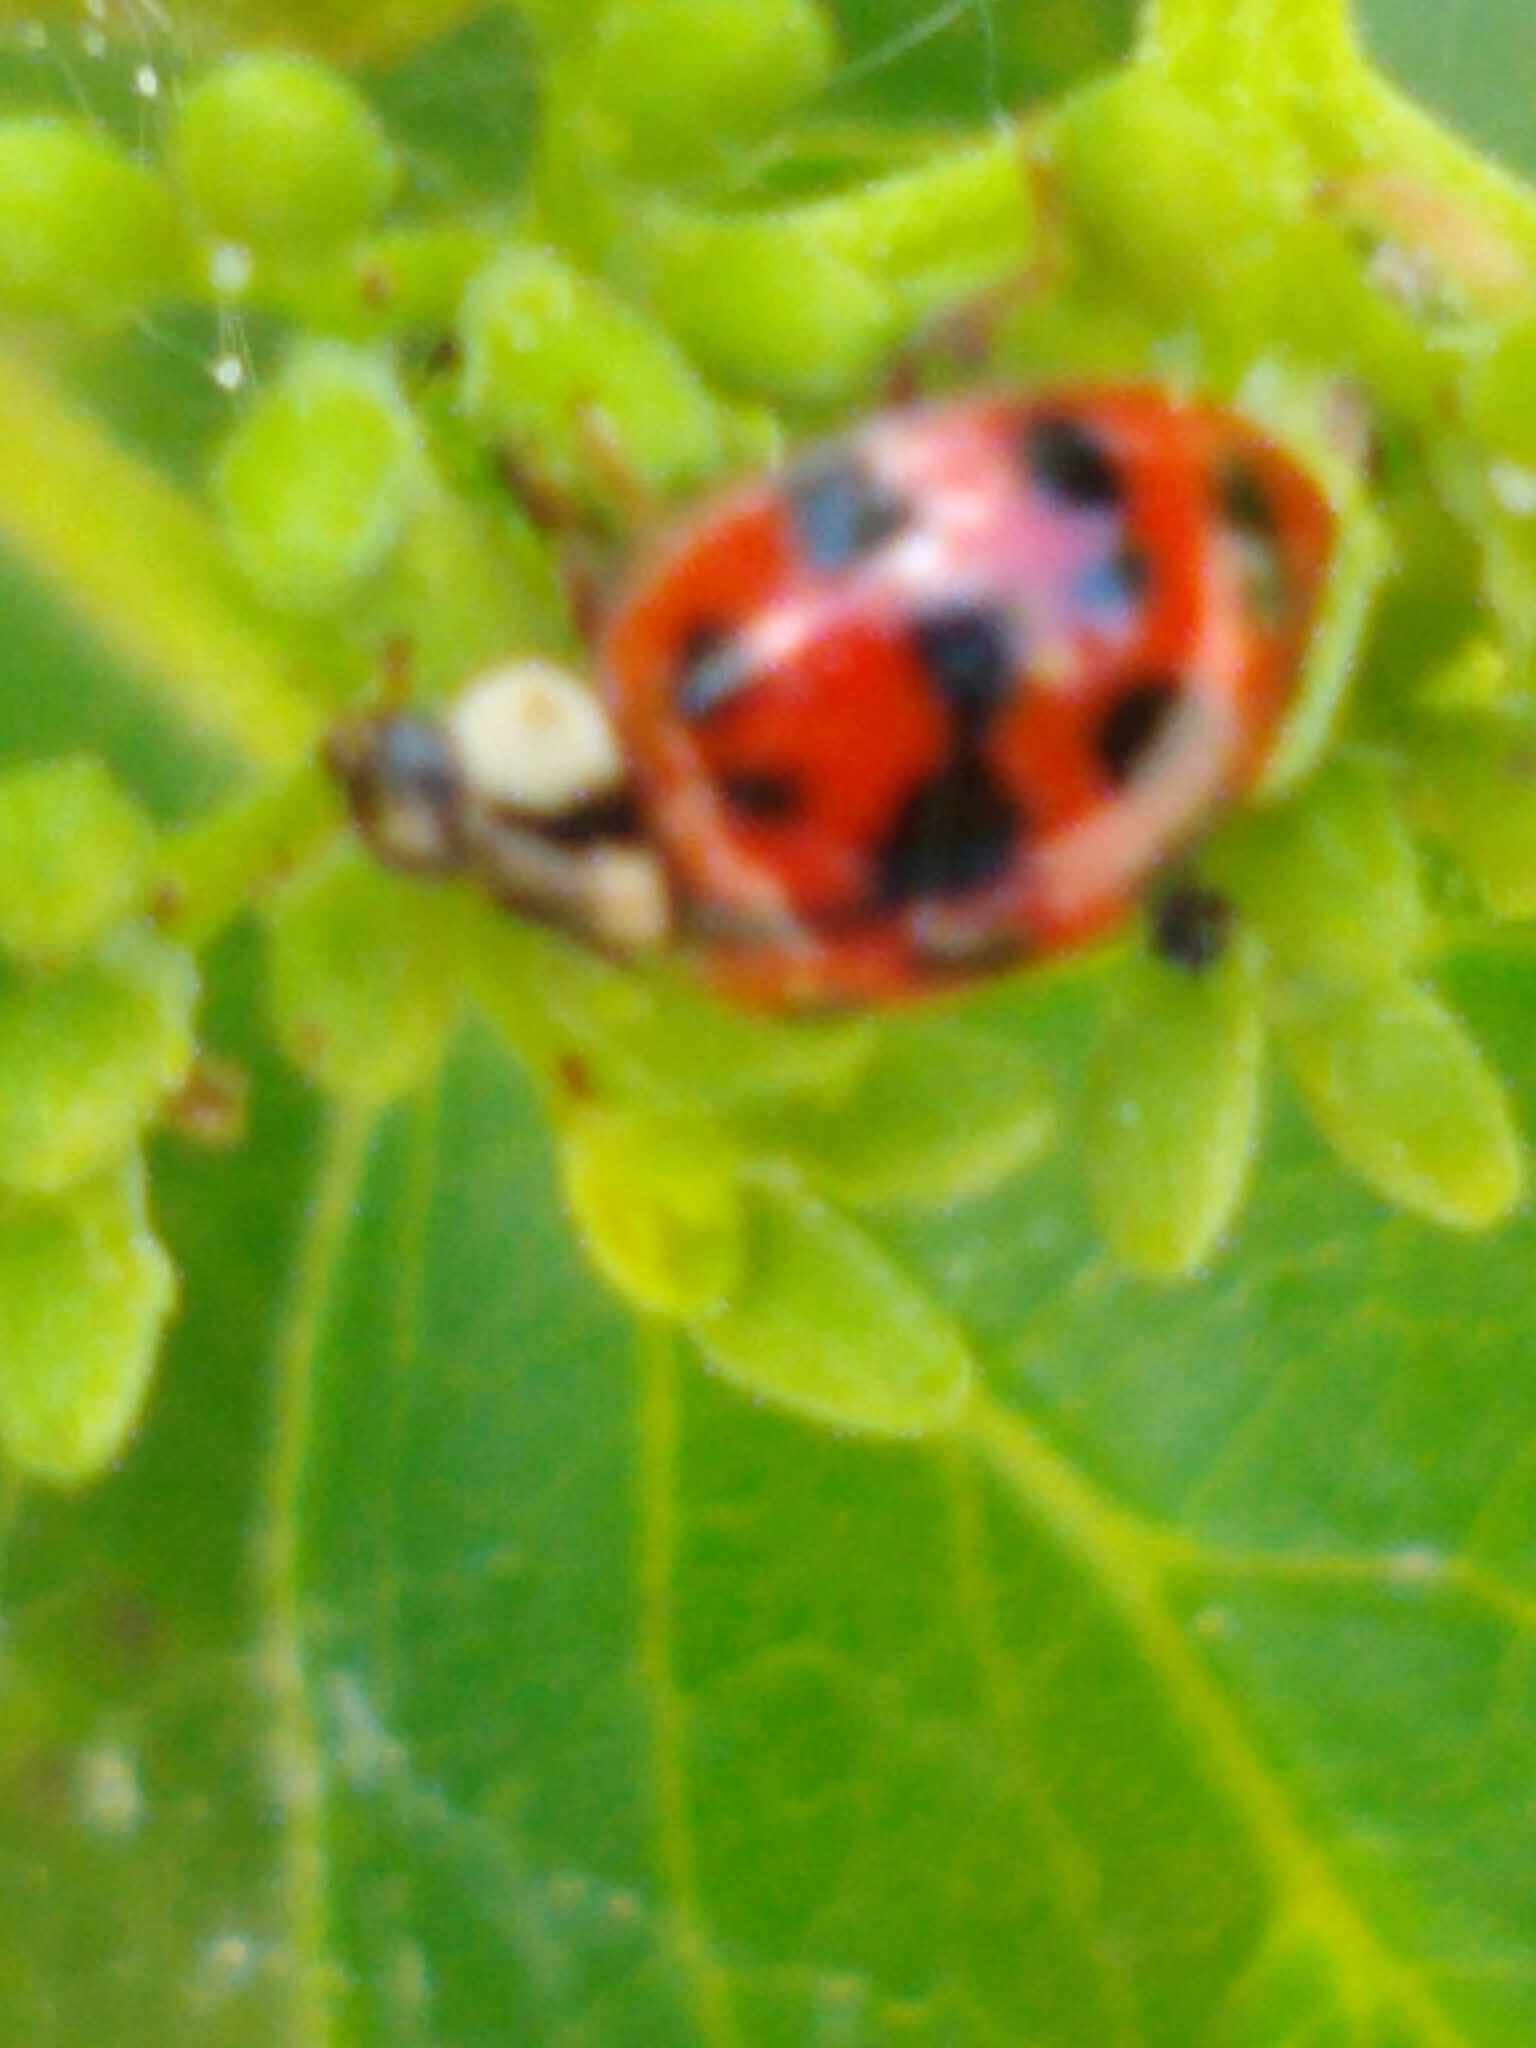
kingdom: Animalia
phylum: Arthropoda
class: Insecta
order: Coleoptera
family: Coccinellidae
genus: Harmonia
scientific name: Harmonia axyridis
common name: Harlequin ladybird
